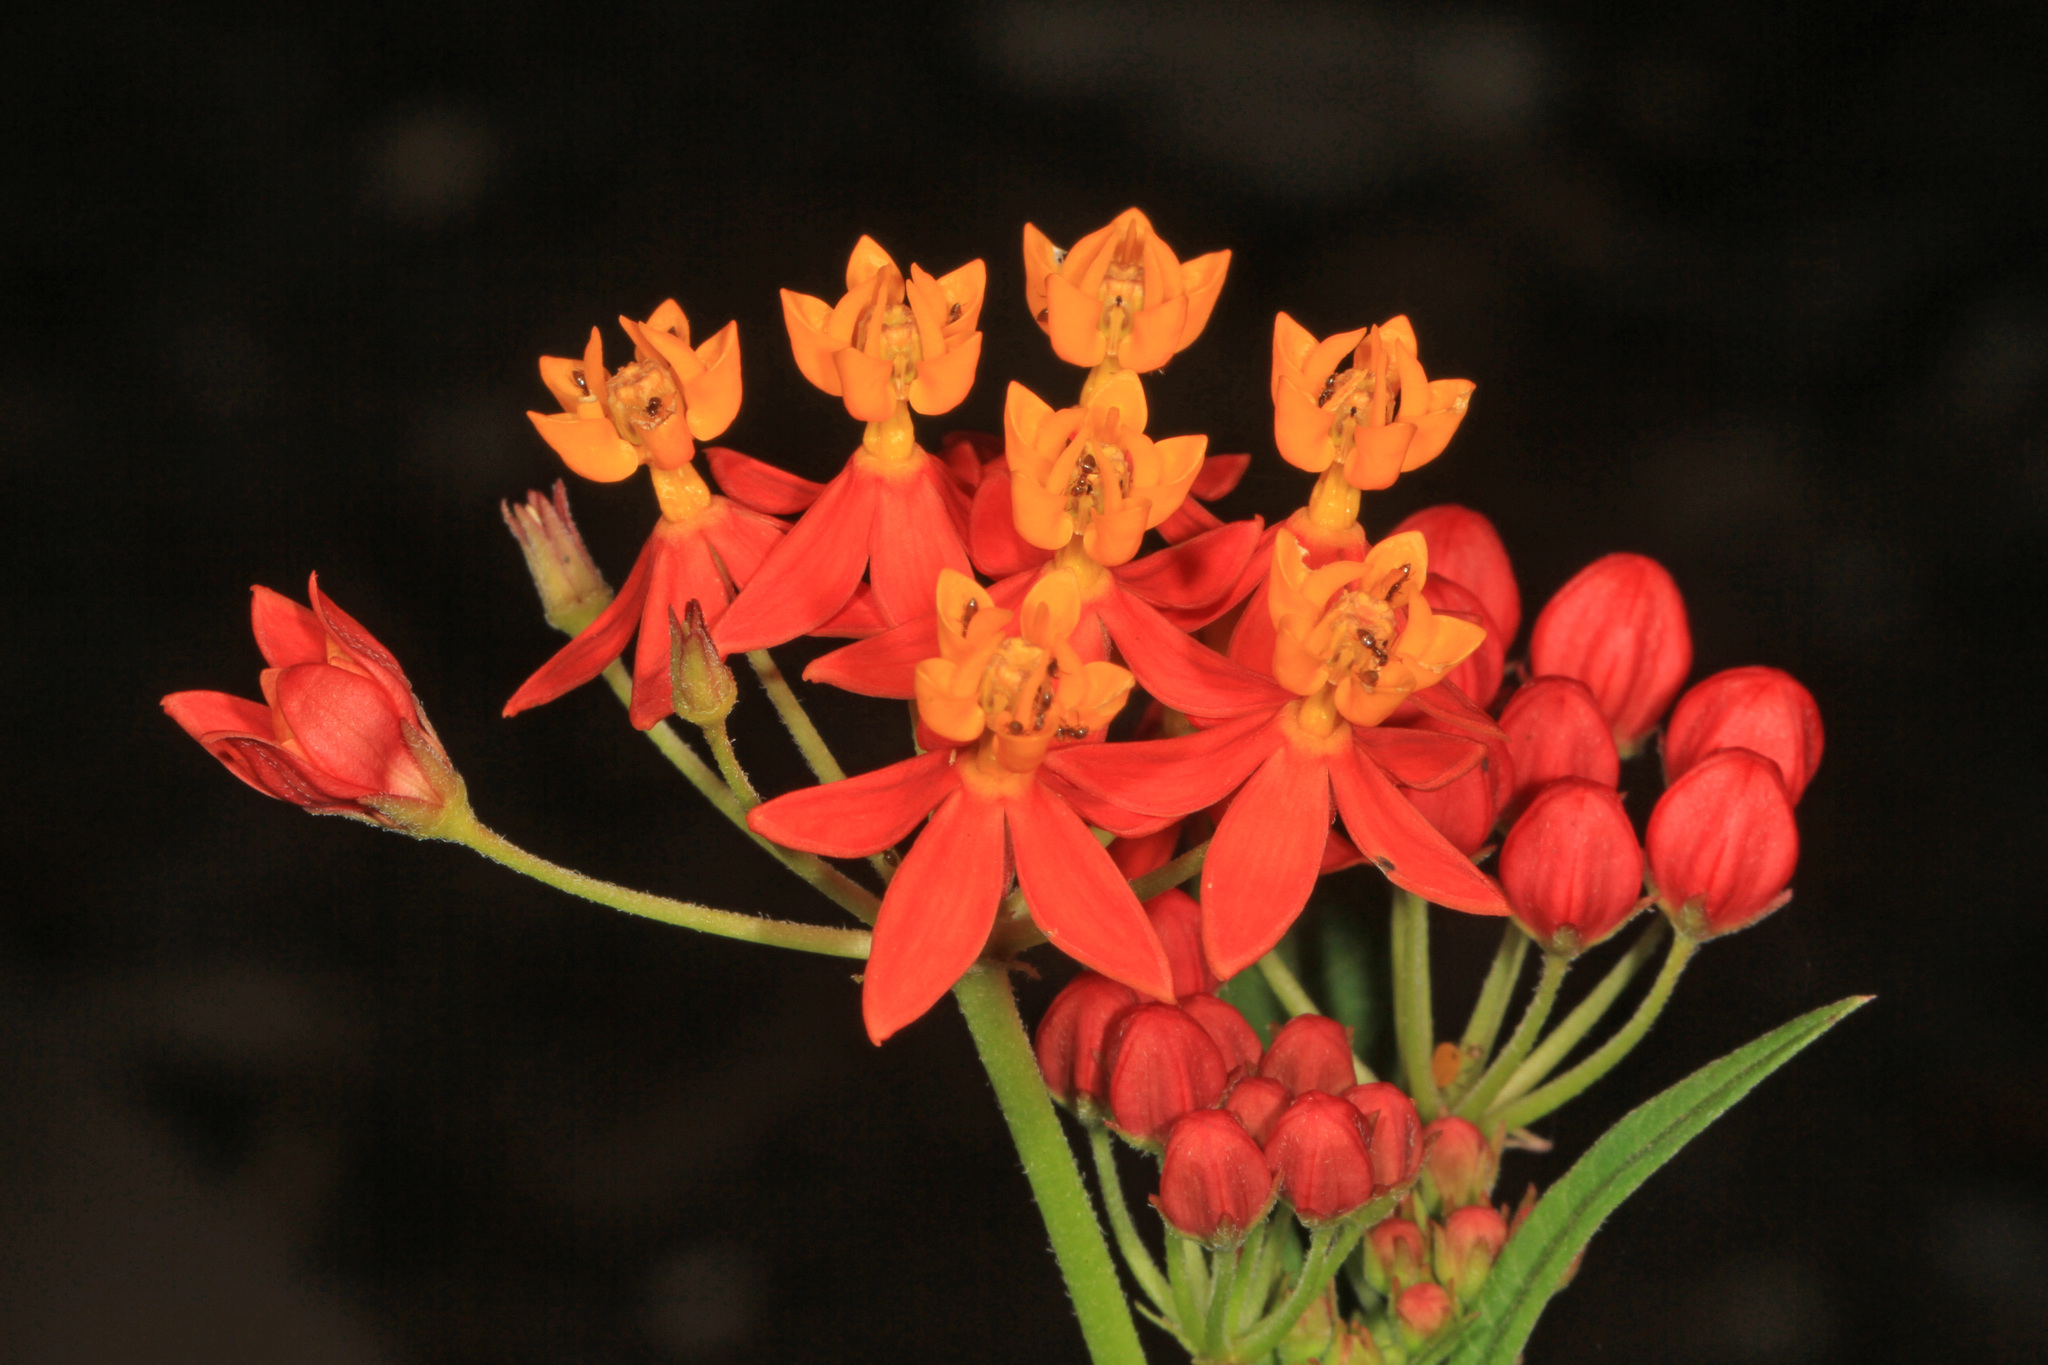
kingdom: Plantae
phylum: Tracheophyta
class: Magnoliopsida
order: Gentianales
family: Apocynaceae
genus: Asclepias
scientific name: Asclepias curassavica
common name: Bloodflower
